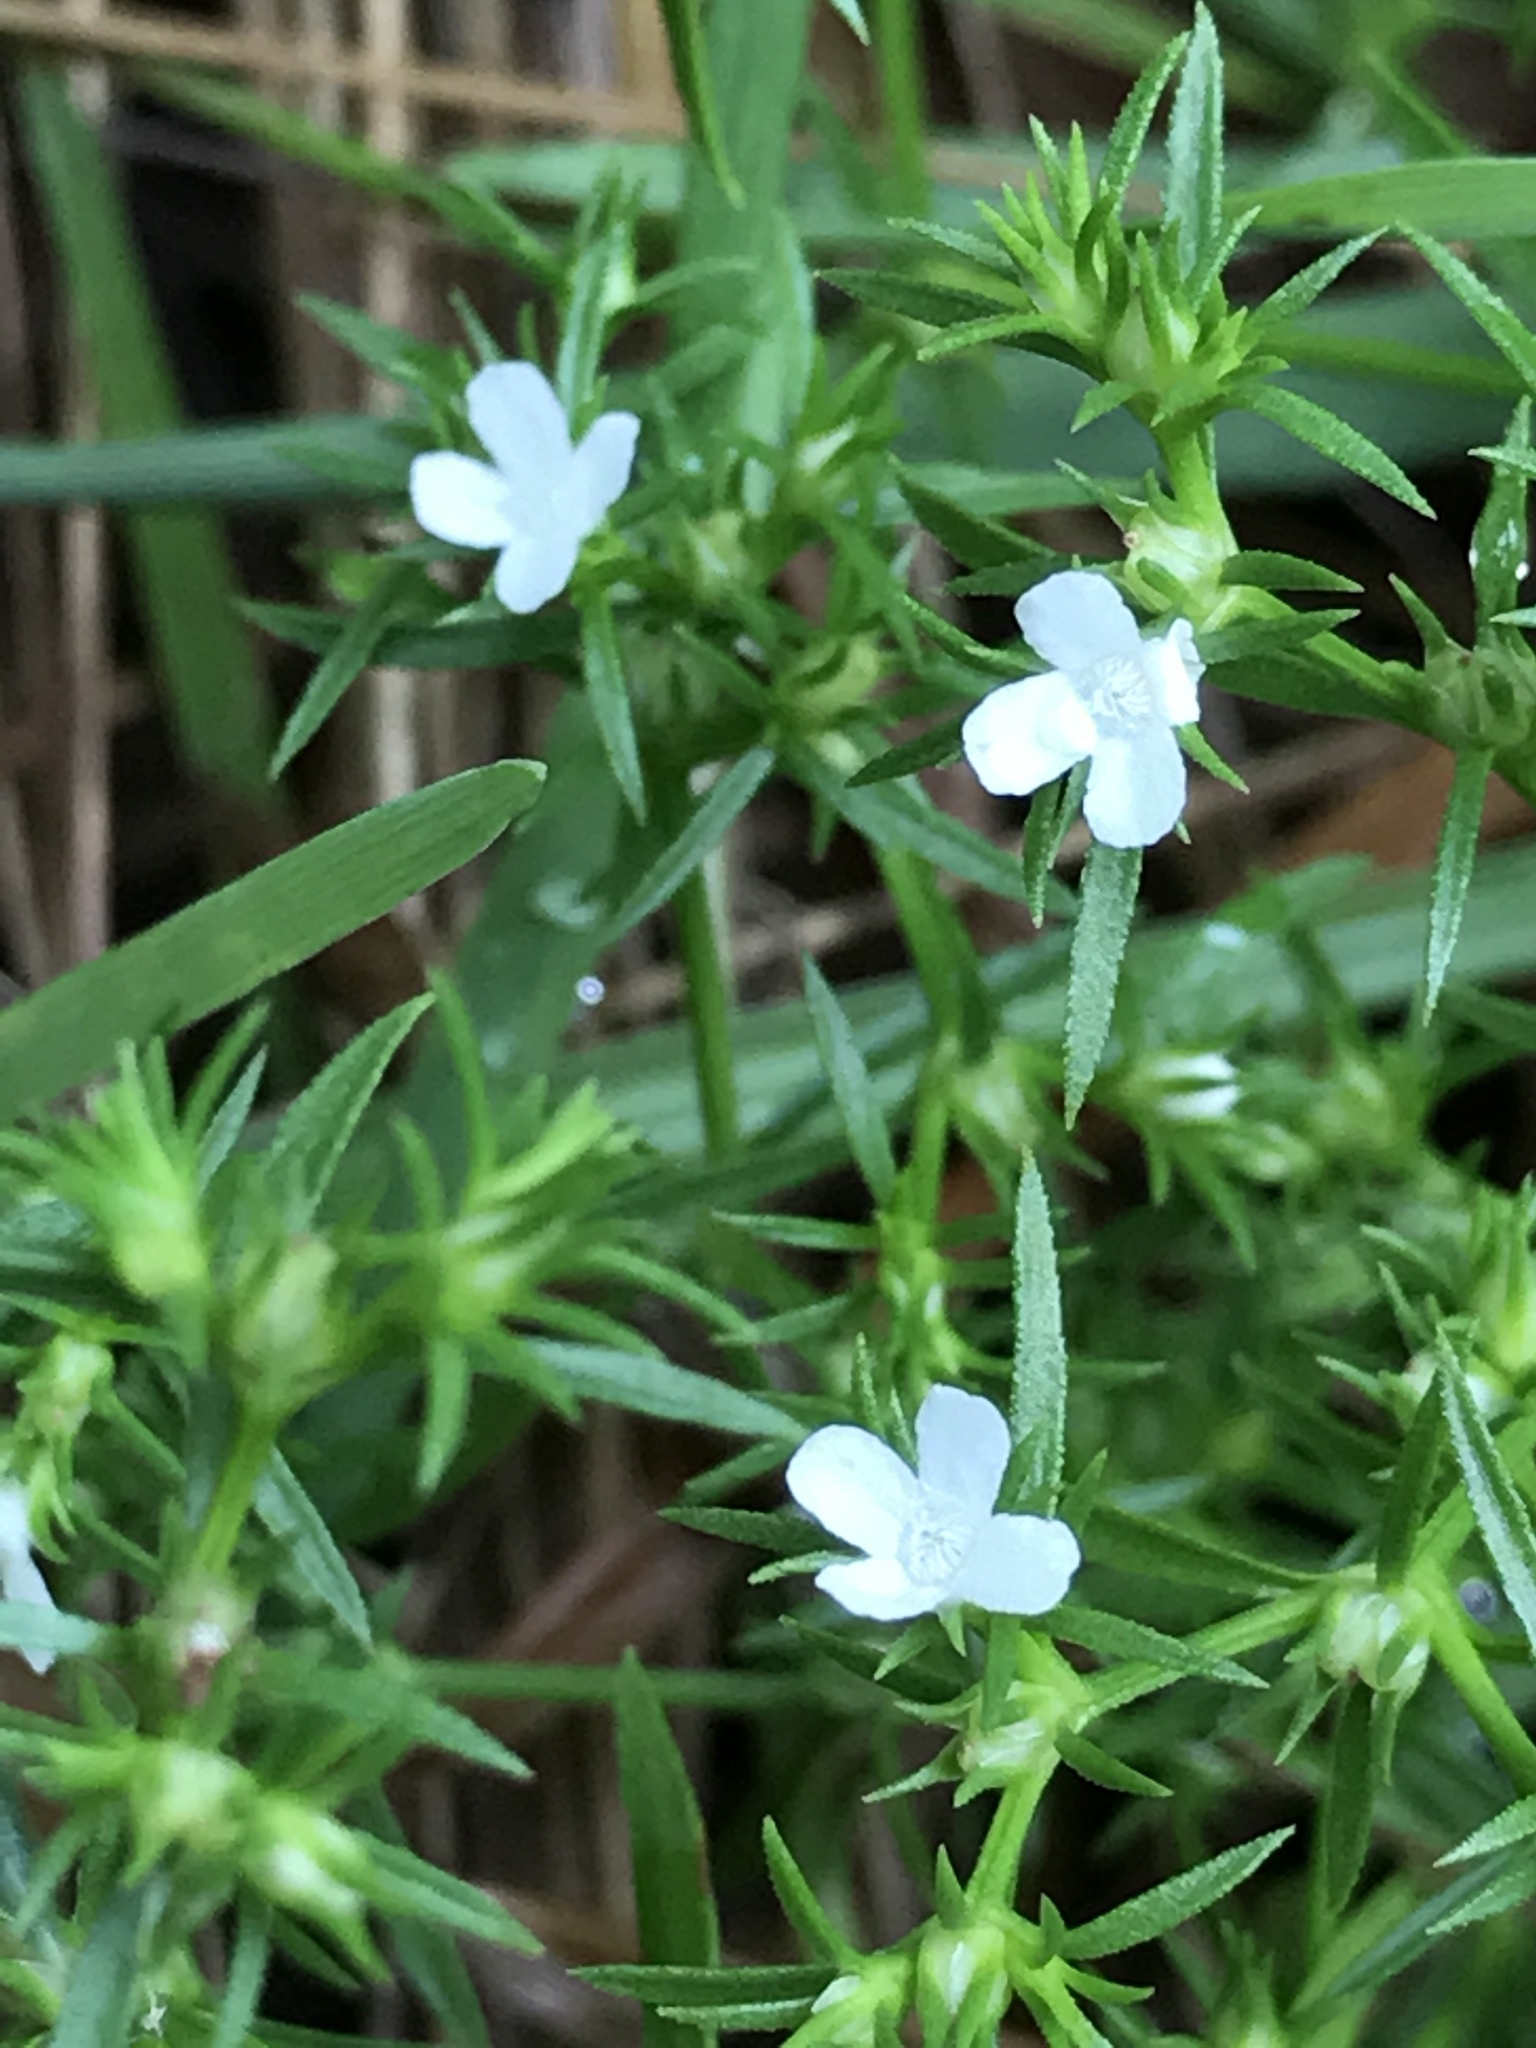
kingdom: Plantae
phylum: Tracheophyta
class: Magnoliopsida
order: Lamiales
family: Tetrachondraceae
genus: Polypremum
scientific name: Polypremum procumbens
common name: Juniper-leaf
